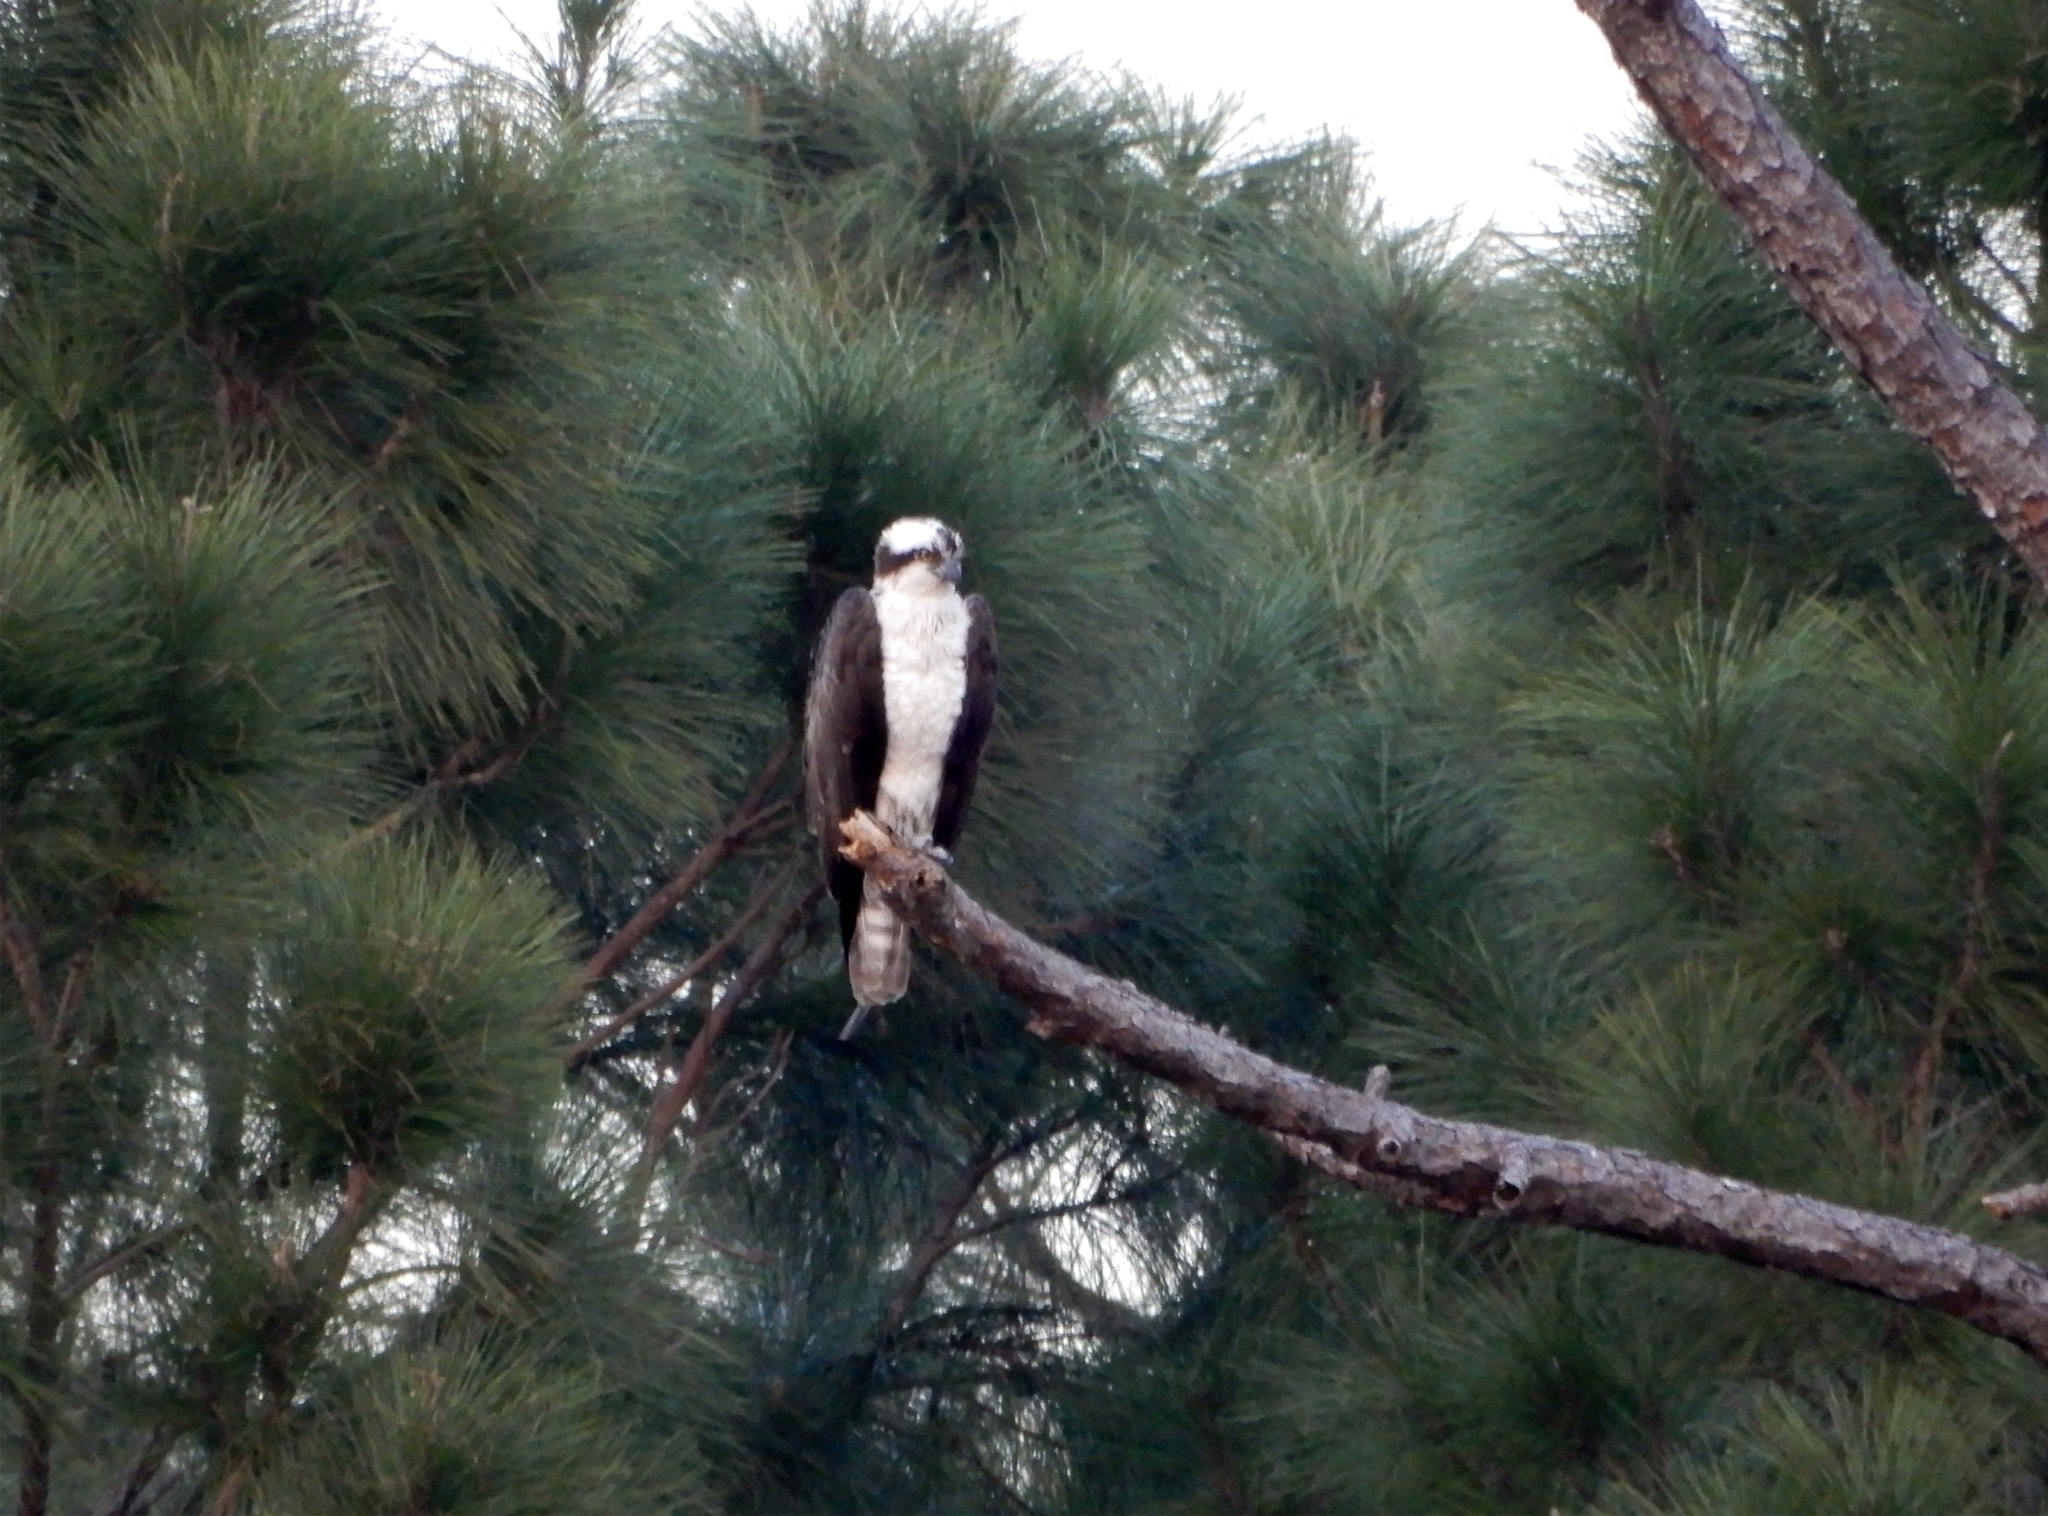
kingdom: Animalia
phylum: Chordata
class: Aves
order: Accipitriformes
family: Pandionidae
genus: Pandion
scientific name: Pandion haliaetus
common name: Osprey
